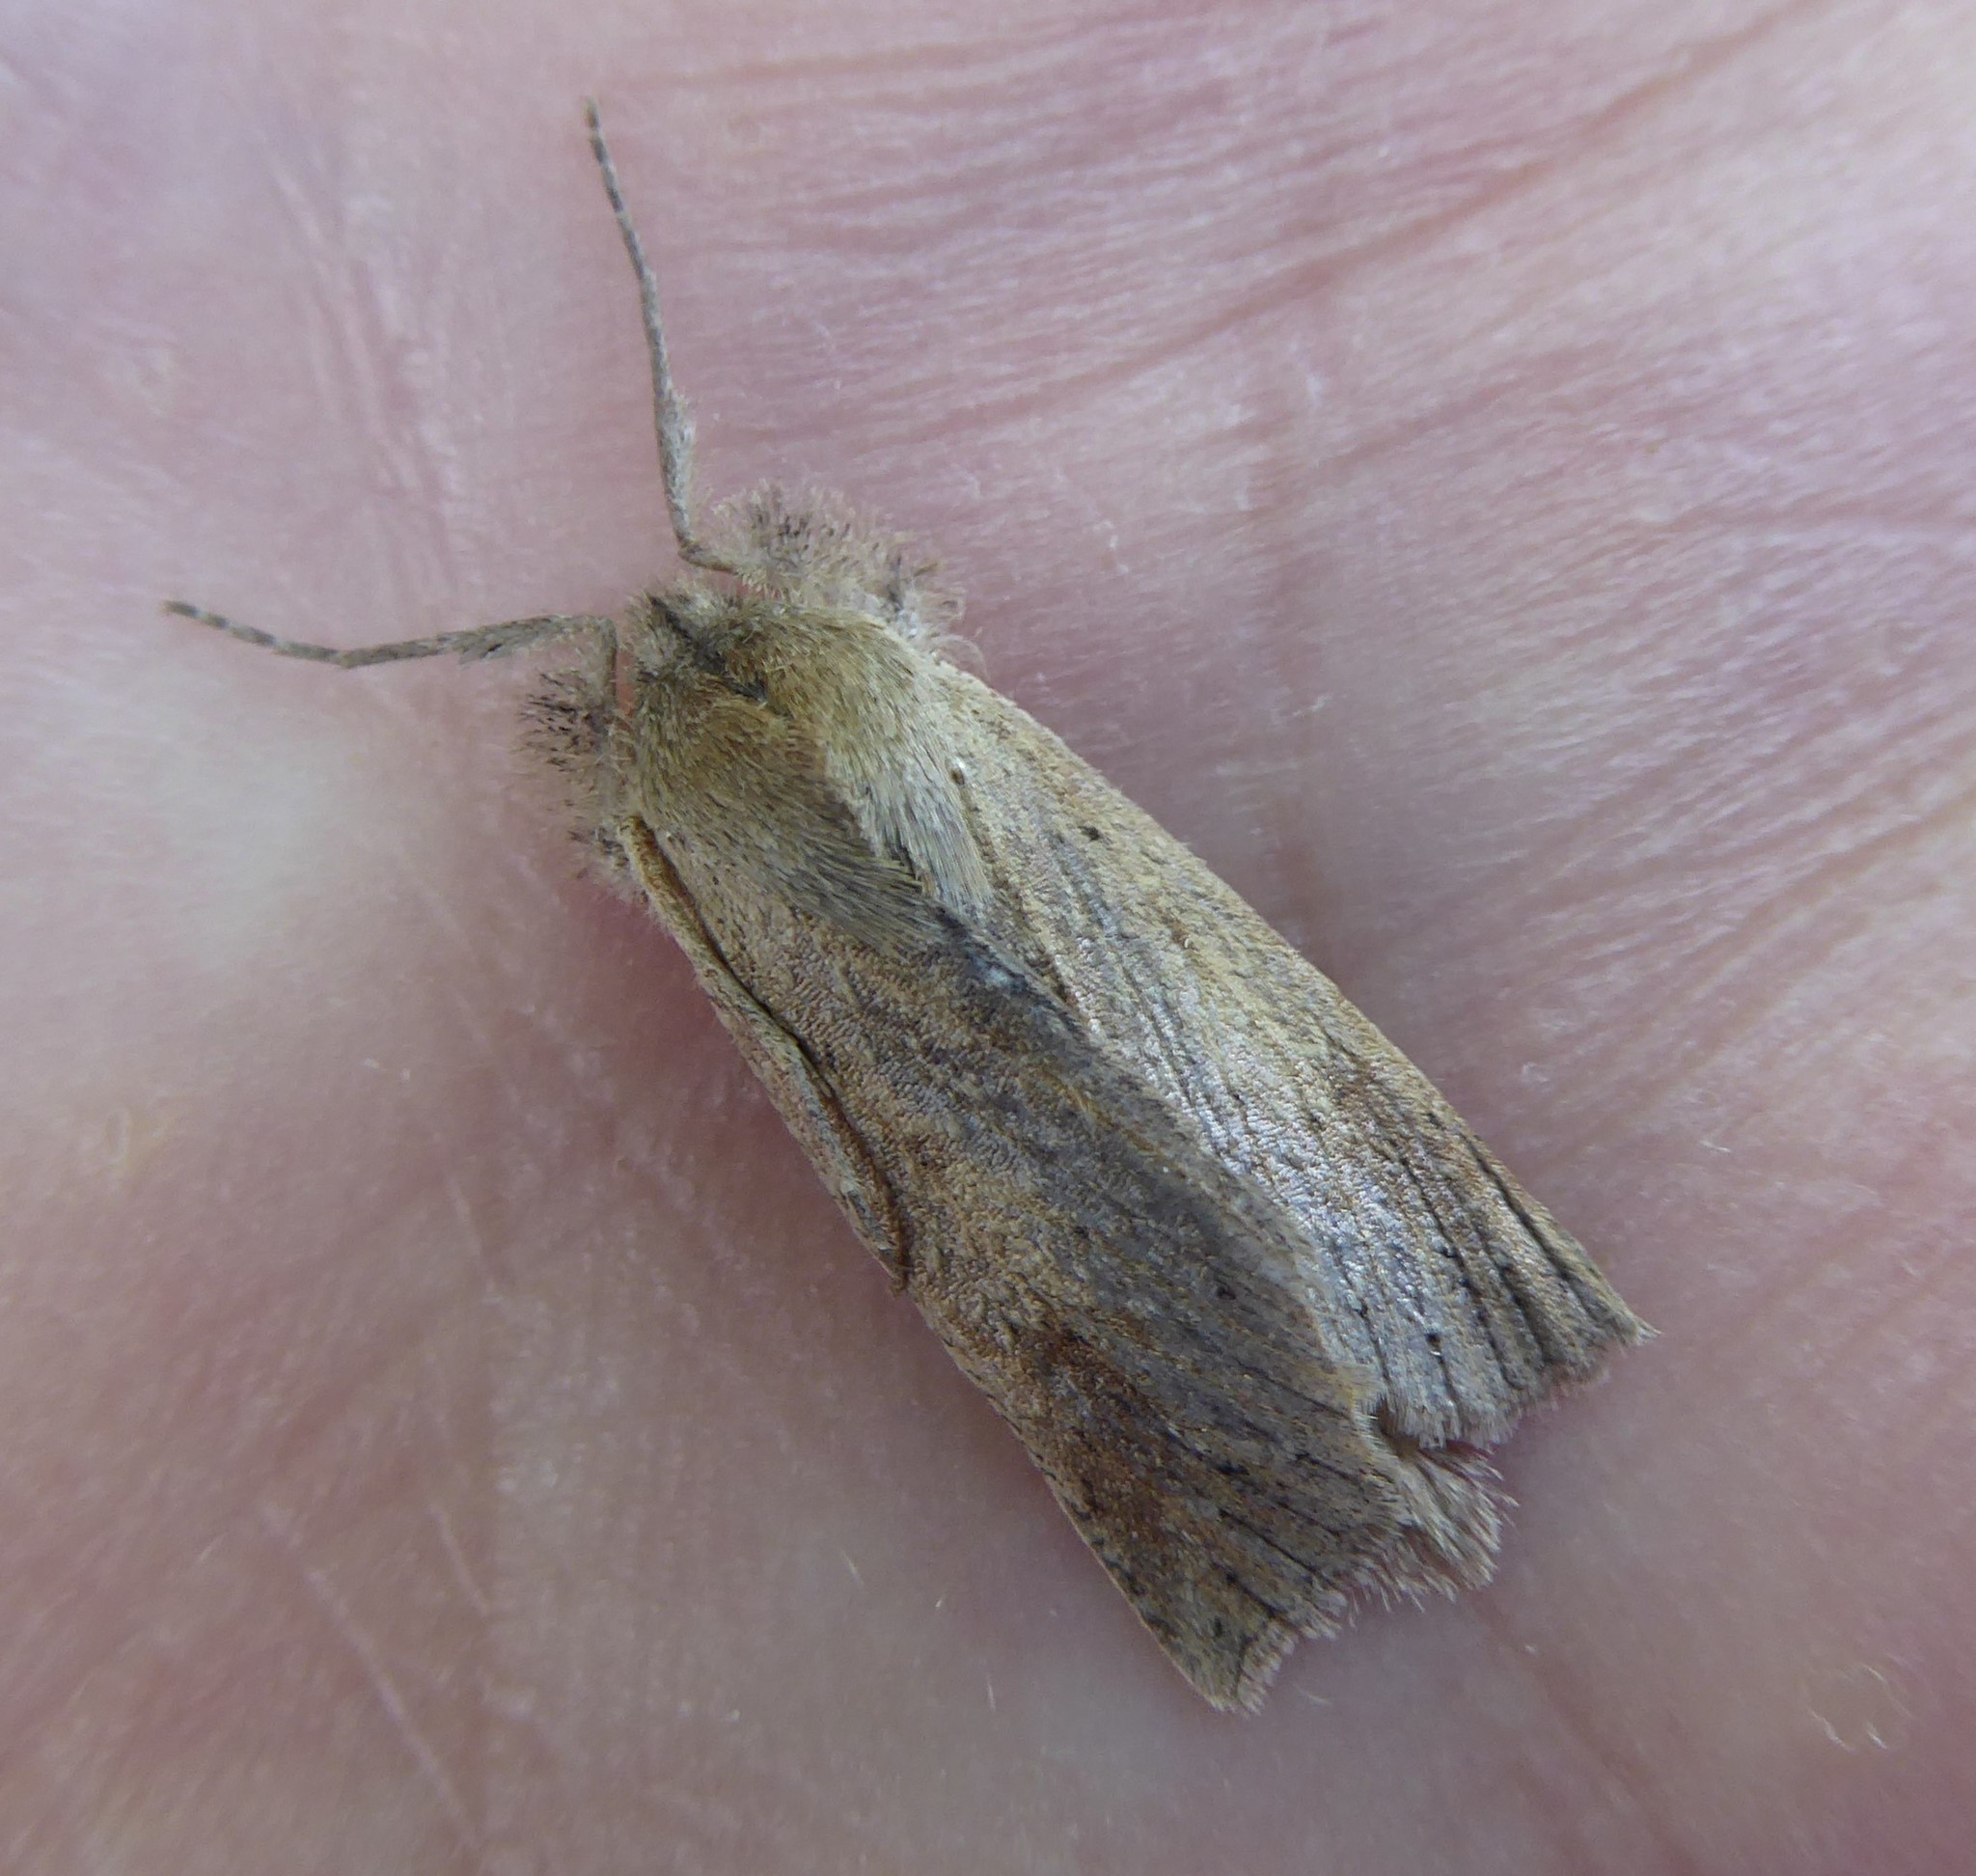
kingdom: Animalia
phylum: Arthropoda
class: Insecta
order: Lepidoptera
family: Geometridae
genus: Declana
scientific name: Declana leptomera
